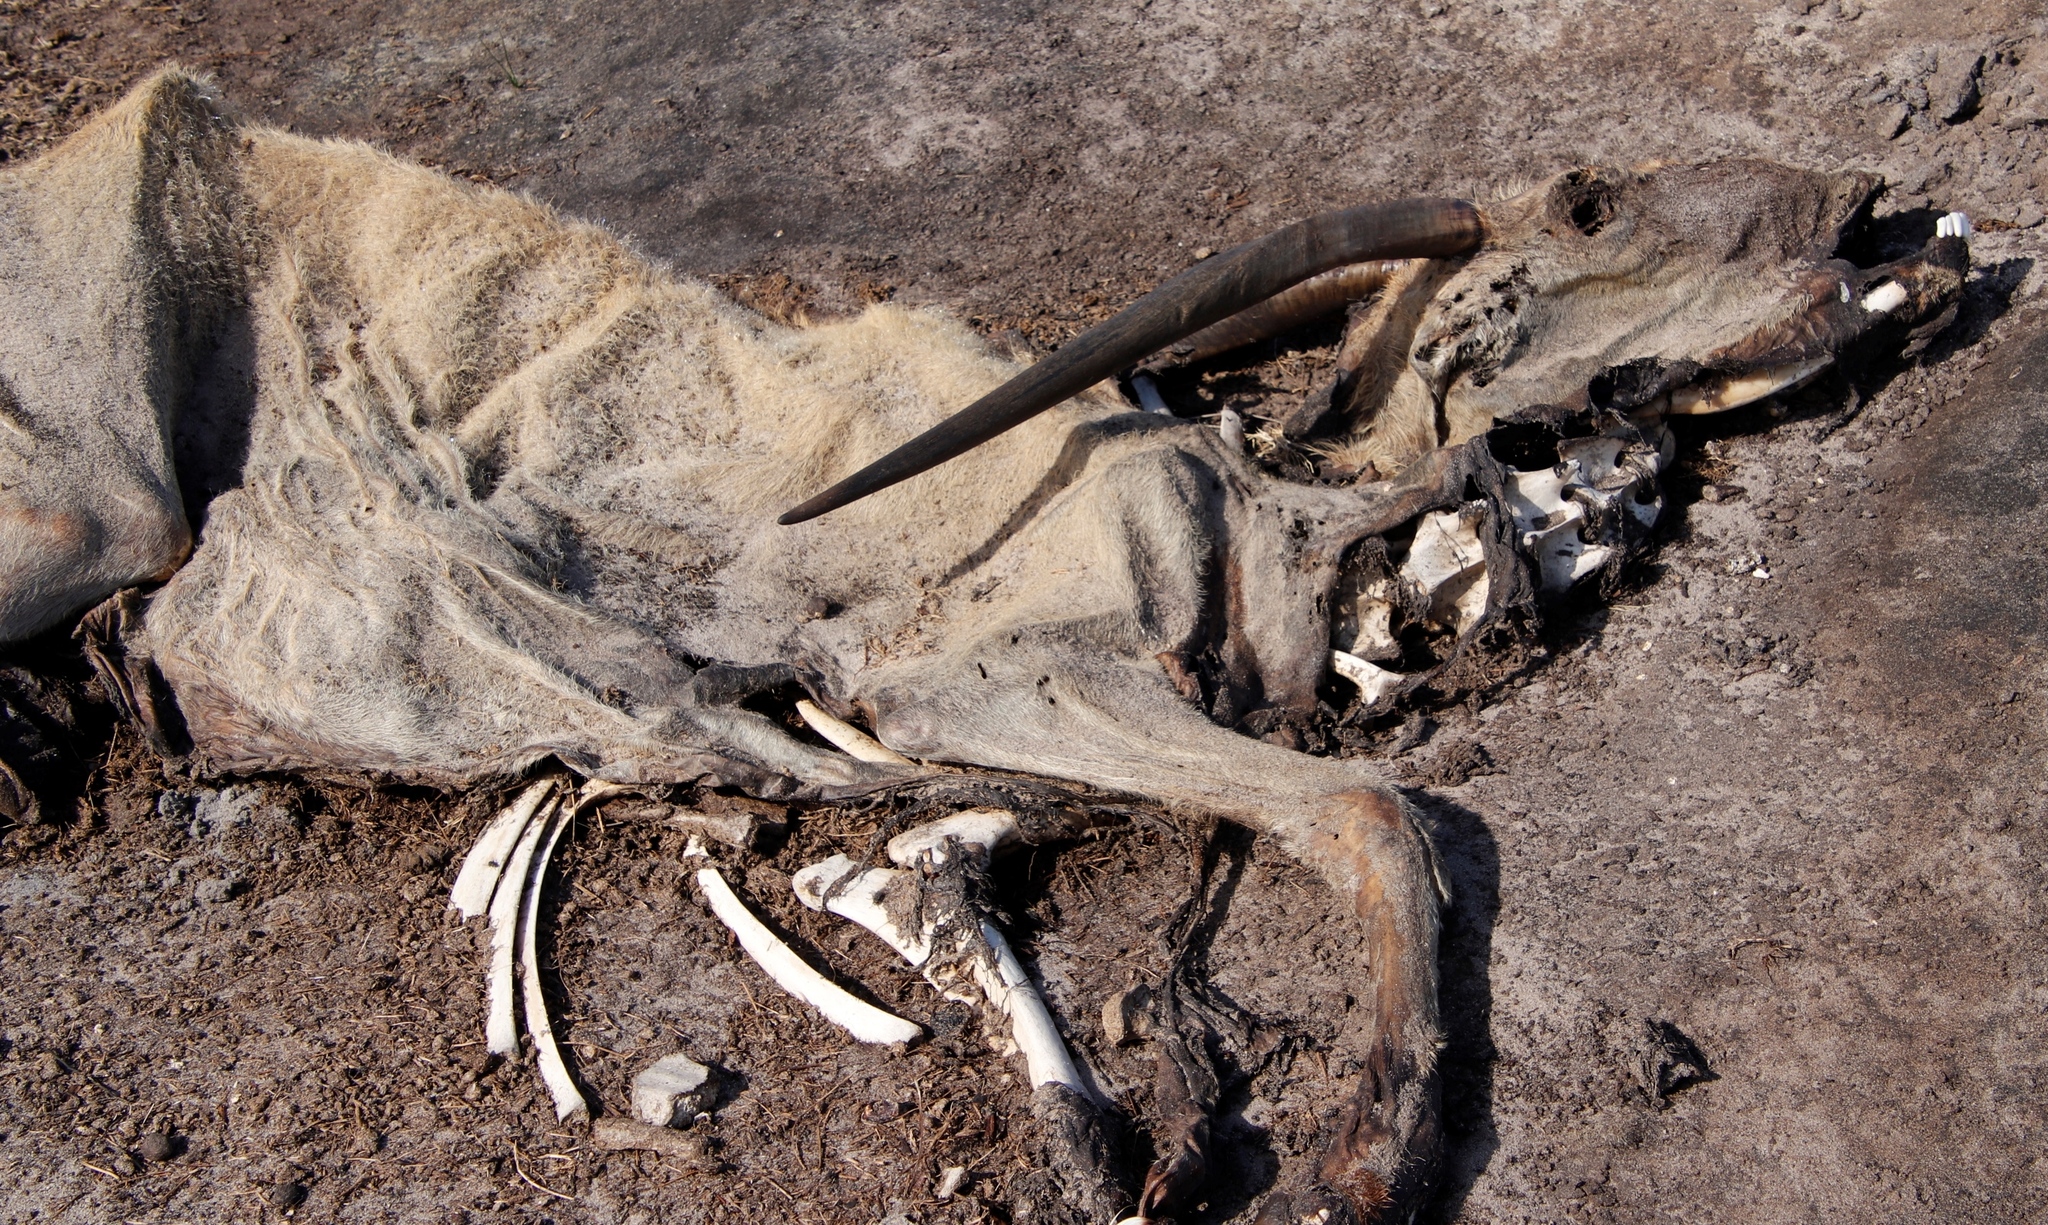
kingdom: Animalia
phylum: Chordata
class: Mammalia
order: Artiodactyla
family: Bovidae
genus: Taurotragus
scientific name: Taurotragus oryx
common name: Common eland
